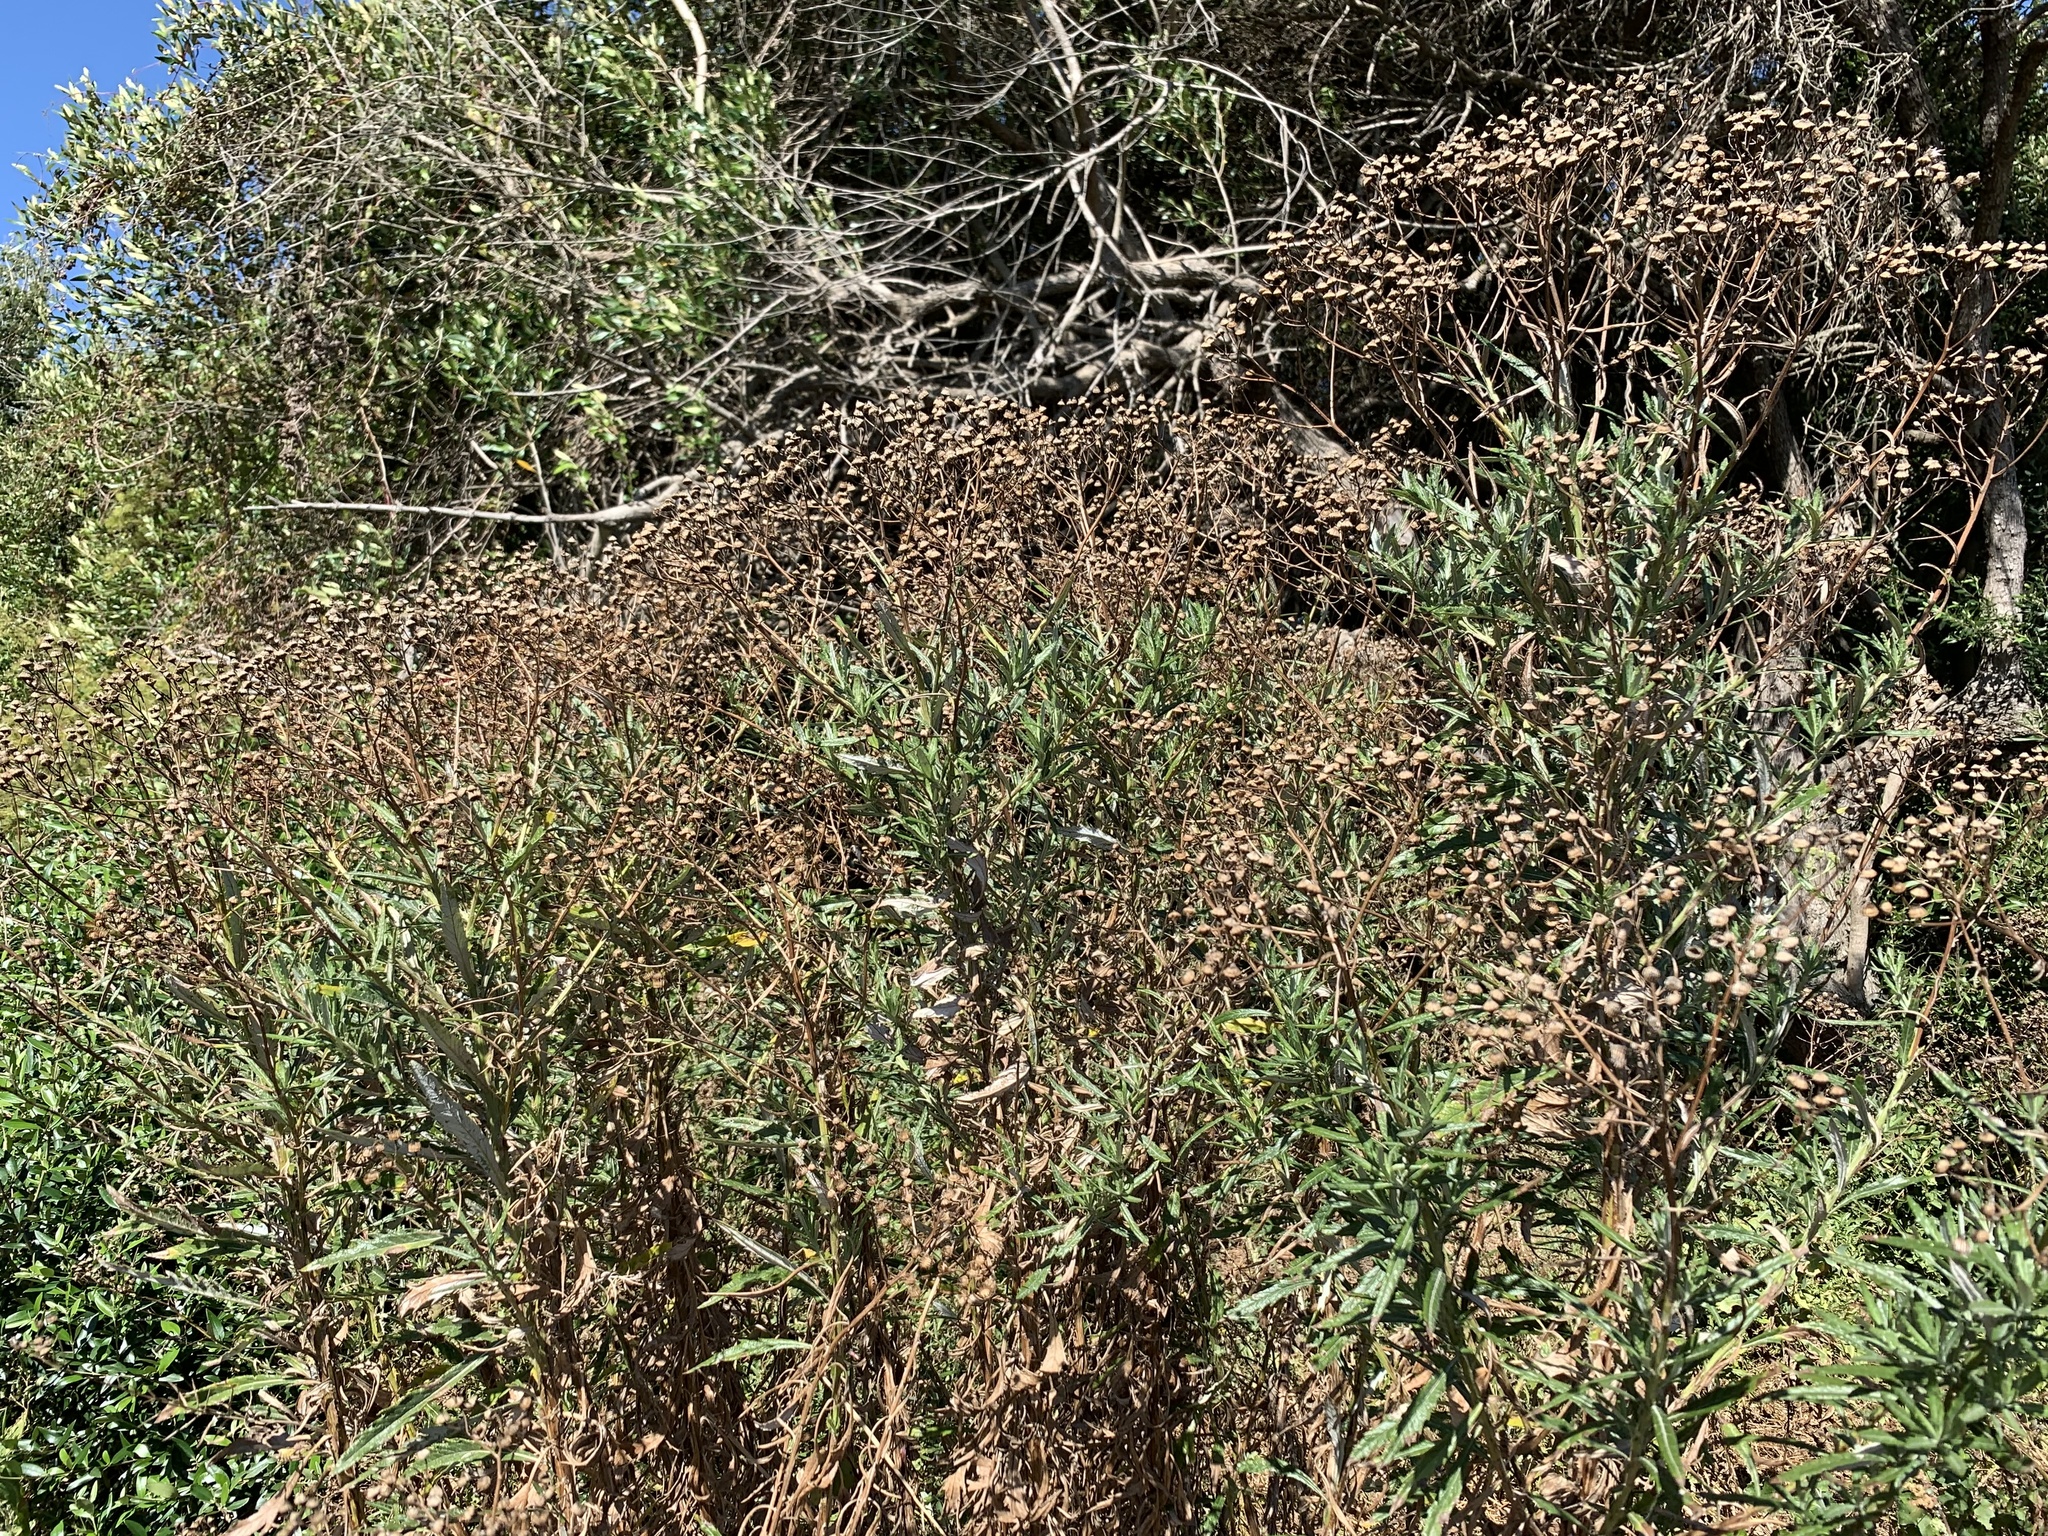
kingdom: Plantae
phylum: Tracheophyta
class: Magnoliopsida
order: Asterales
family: Asteraceae
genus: Senecio
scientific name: Senecio pterophorus
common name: Shoddy ragwort
